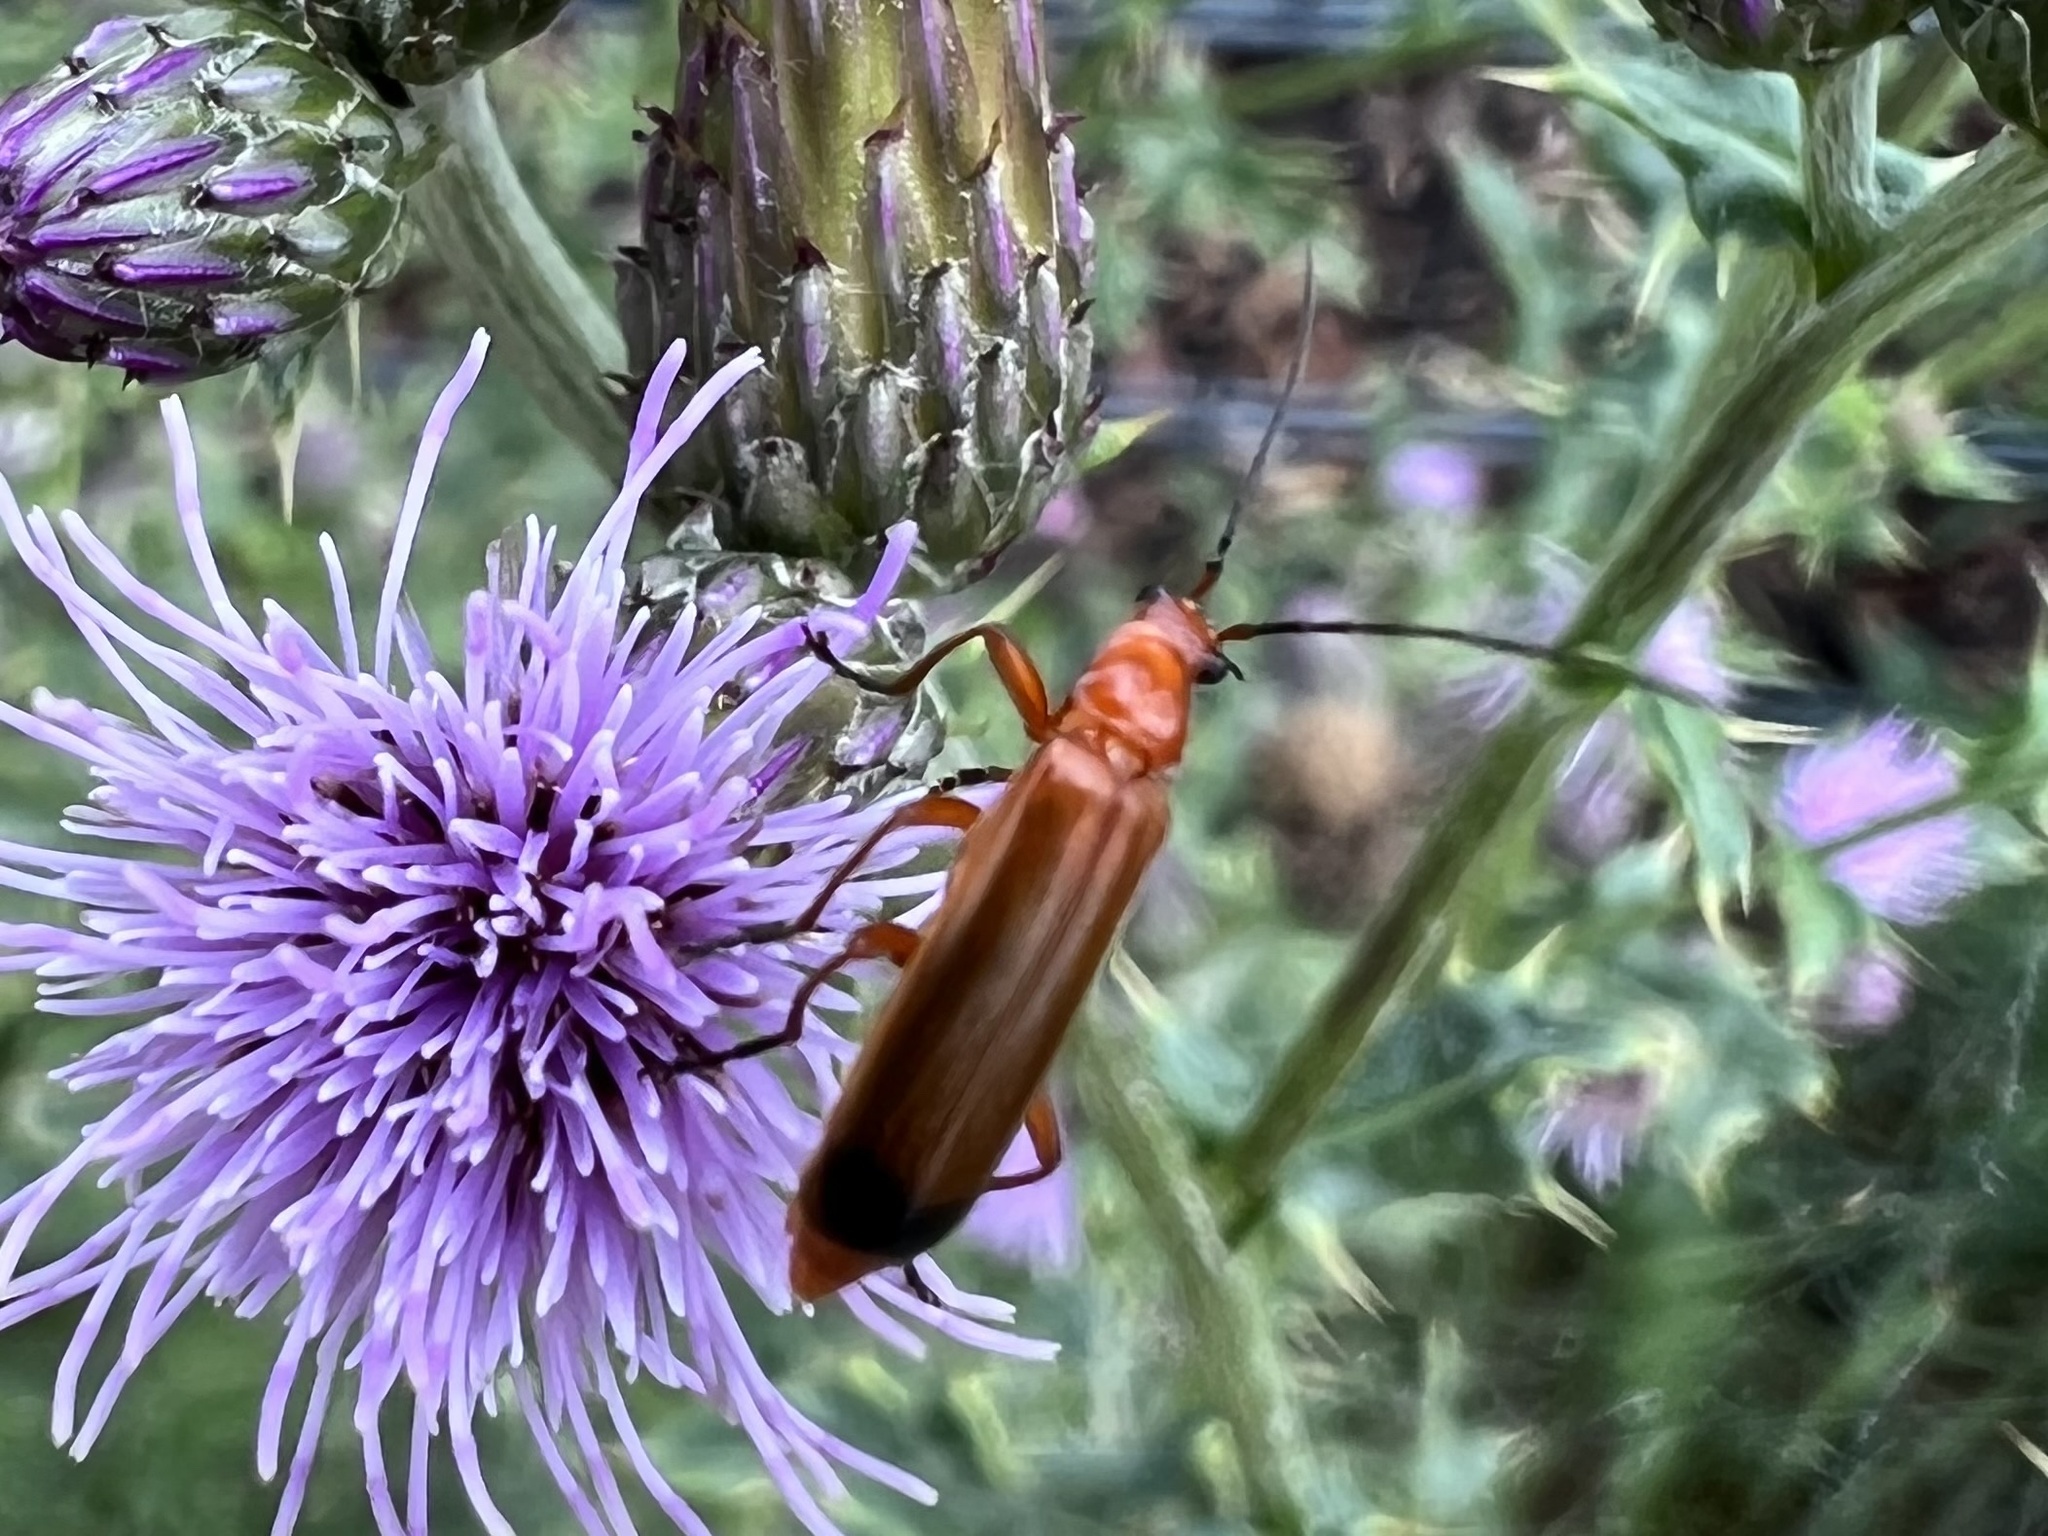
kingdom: Animalia
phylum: Arthropoda
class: Insecta
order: Coleoptera
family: Cantharidae
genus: Rhagonycha
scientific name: Rhagonycha fulva
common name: Common red soldier beetle
